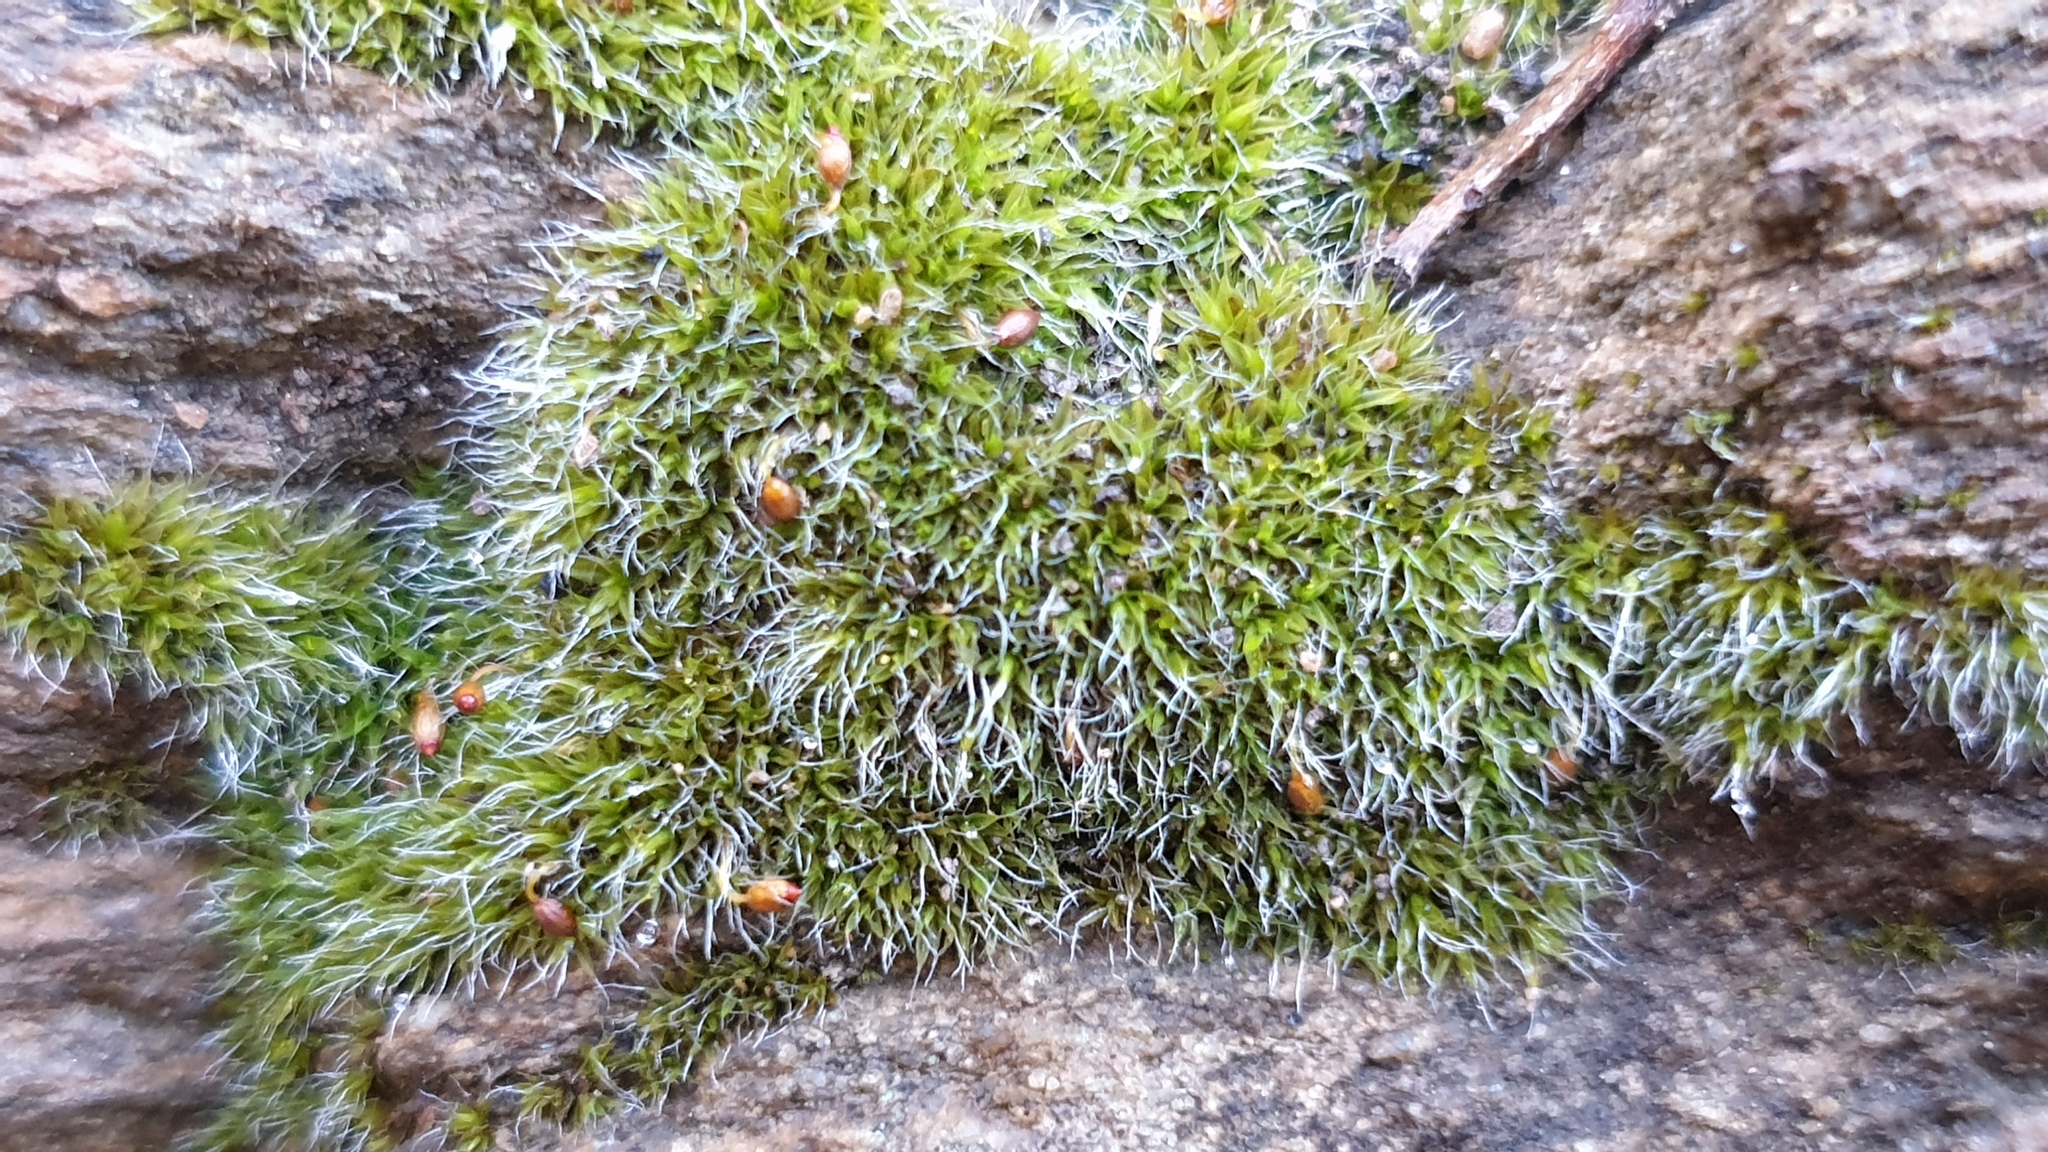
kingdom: Plantae
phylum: Bryophyta
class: Bryopsida
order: Grimmiales
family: Grimmiaceae
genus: Grimmia
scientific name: Grimmia pulvinata
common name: Grey-cushioned grimmia
